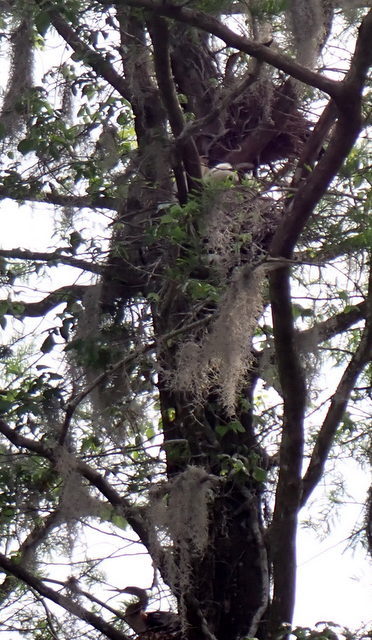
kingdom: Animalia
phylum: Chordata
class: Aves
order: Suliformes
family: Anhingidae
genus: Anhinga
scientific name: Anhinga anhinga
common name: Anhinga
